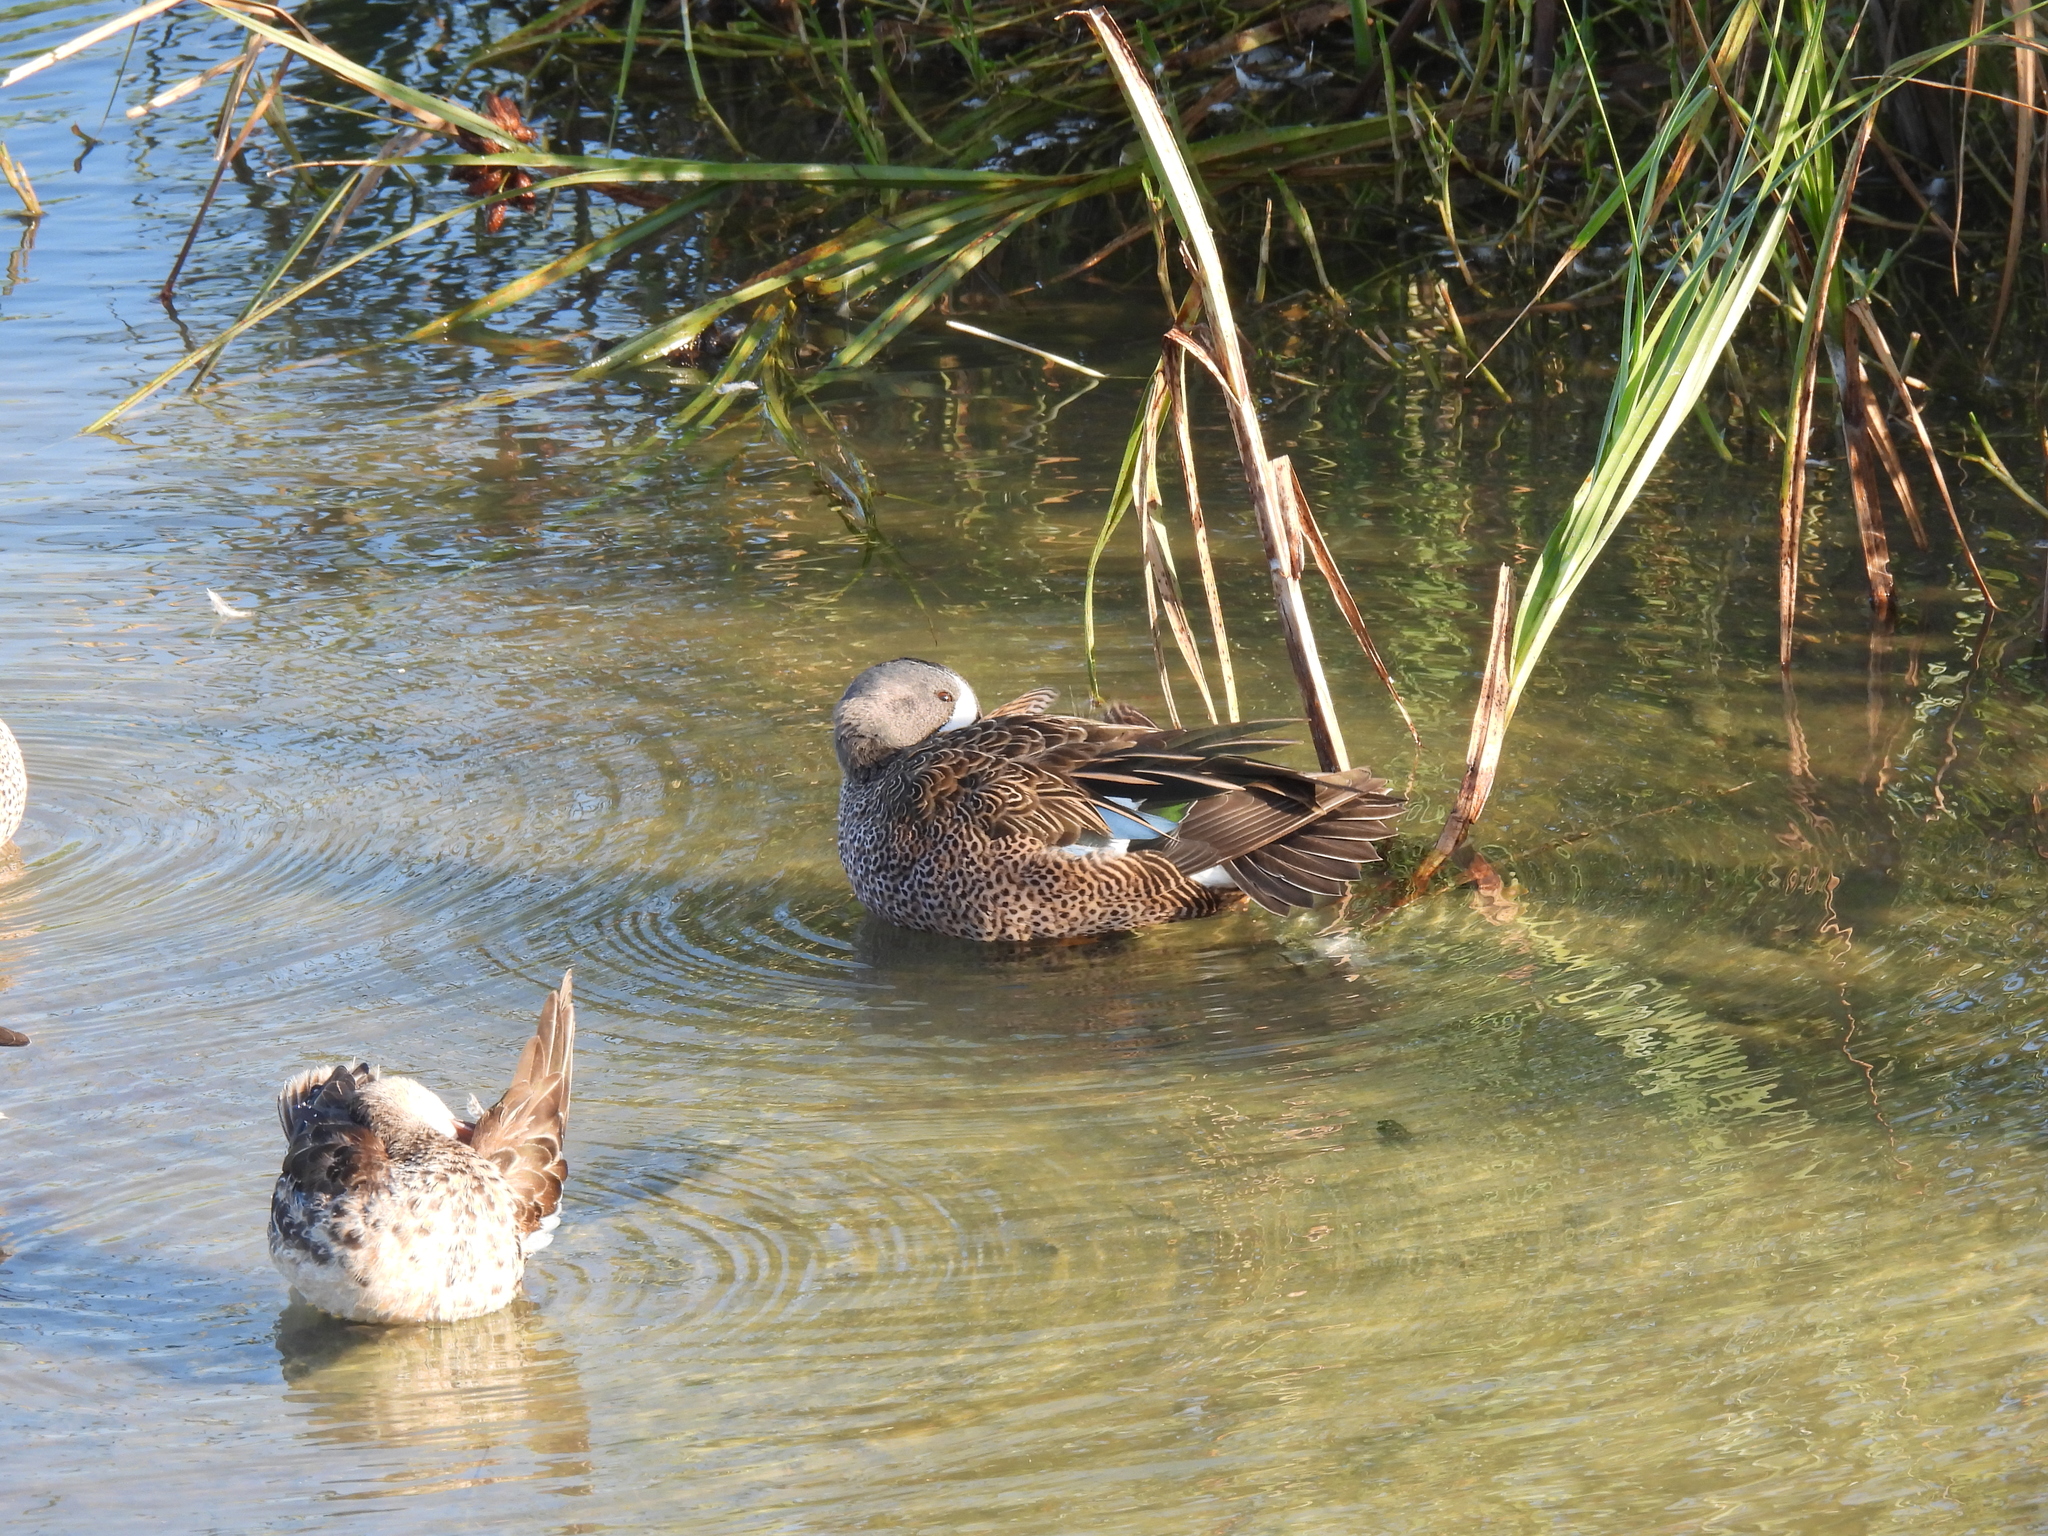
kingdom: Animalia
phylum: Chordata
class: Aves
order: Anseriformes
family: Anatidae
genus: Spatula
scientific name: Spatula discors
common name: Blue-winged teal
